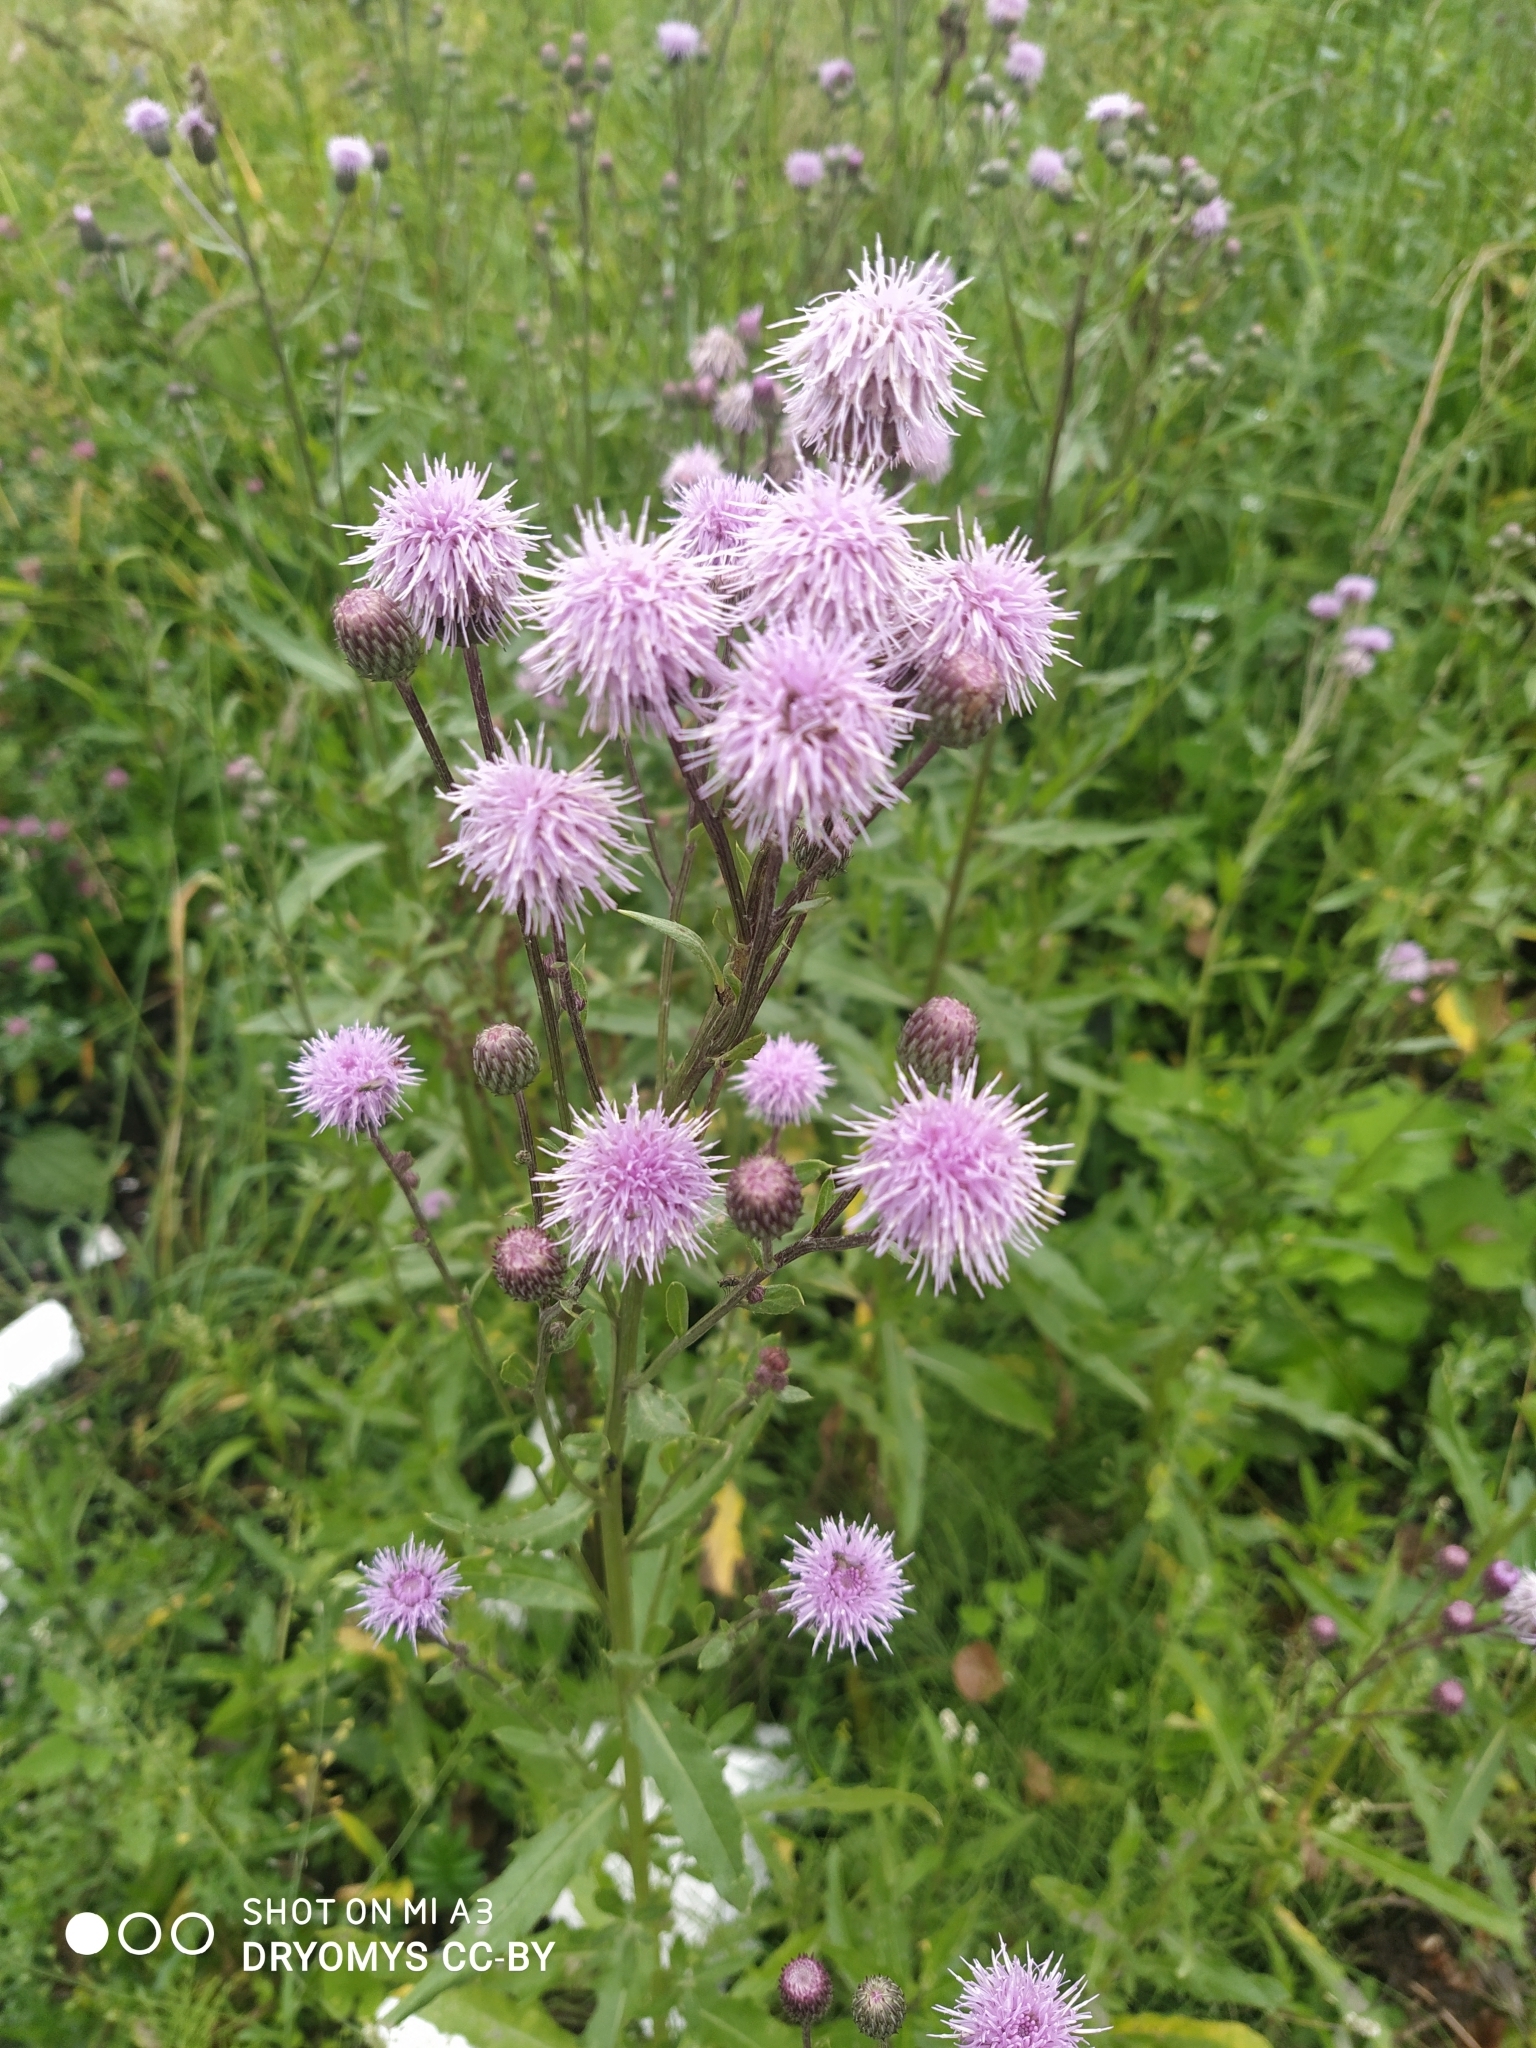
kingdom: Plantae
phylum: Tracheophyta
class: Magnoliopsida
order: Asterales
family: Asteraceae
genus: Cirsium
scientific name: Cirsium arvense
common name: Creeping thistle
